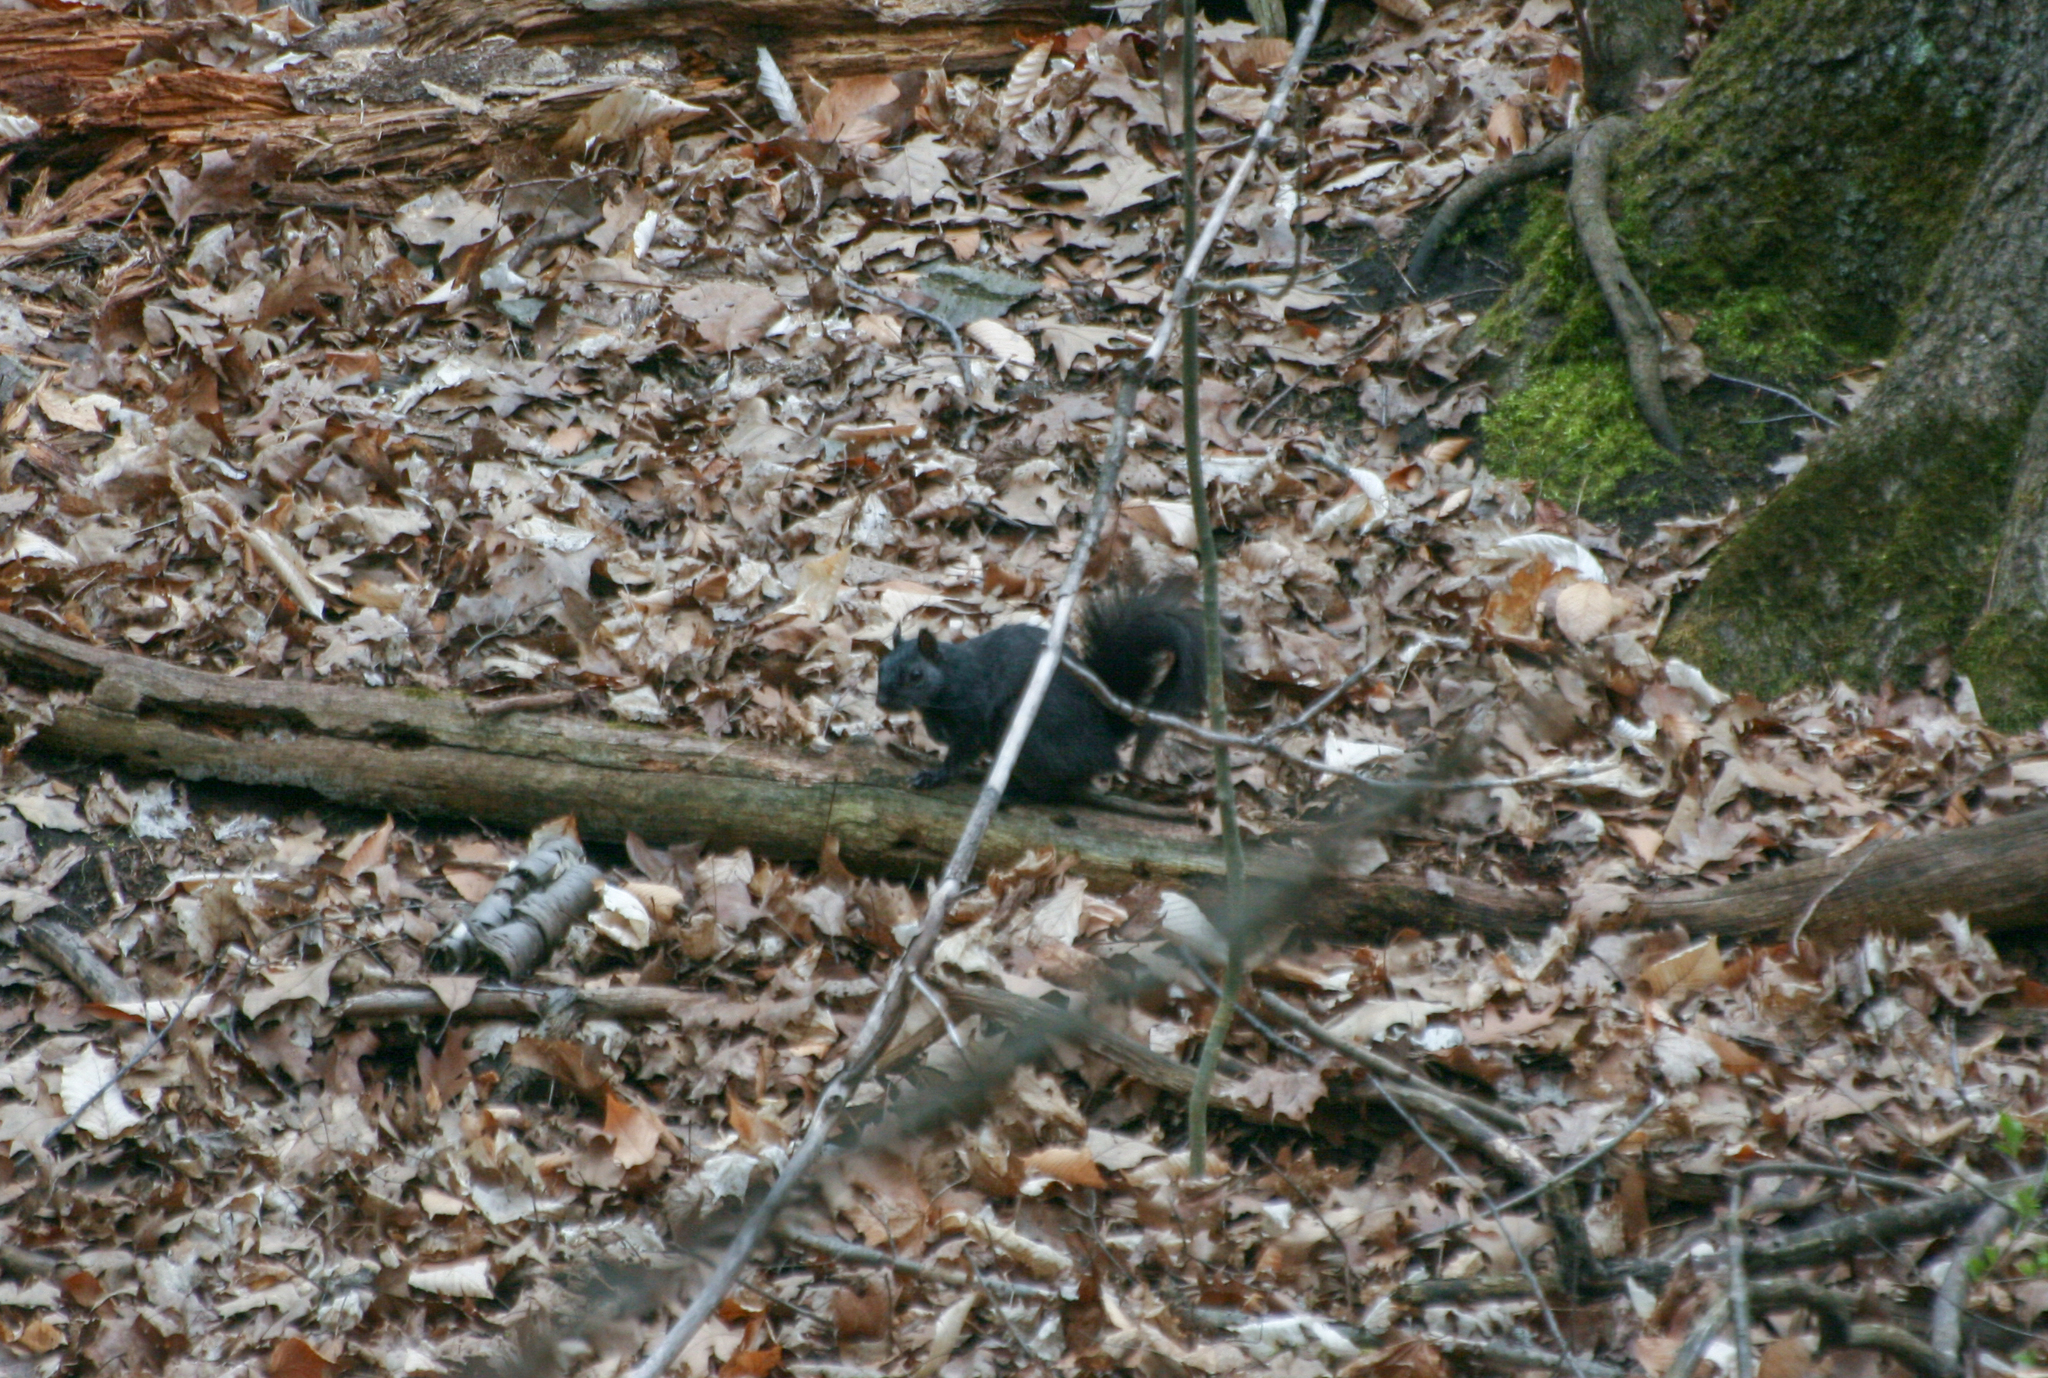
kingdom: Animalia
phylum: Chordata
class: Mammalia
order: Rodentia
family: Sciuridae
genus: Sciurus
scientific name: Sciurus carolinensis
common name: Eastern gray squirrel
